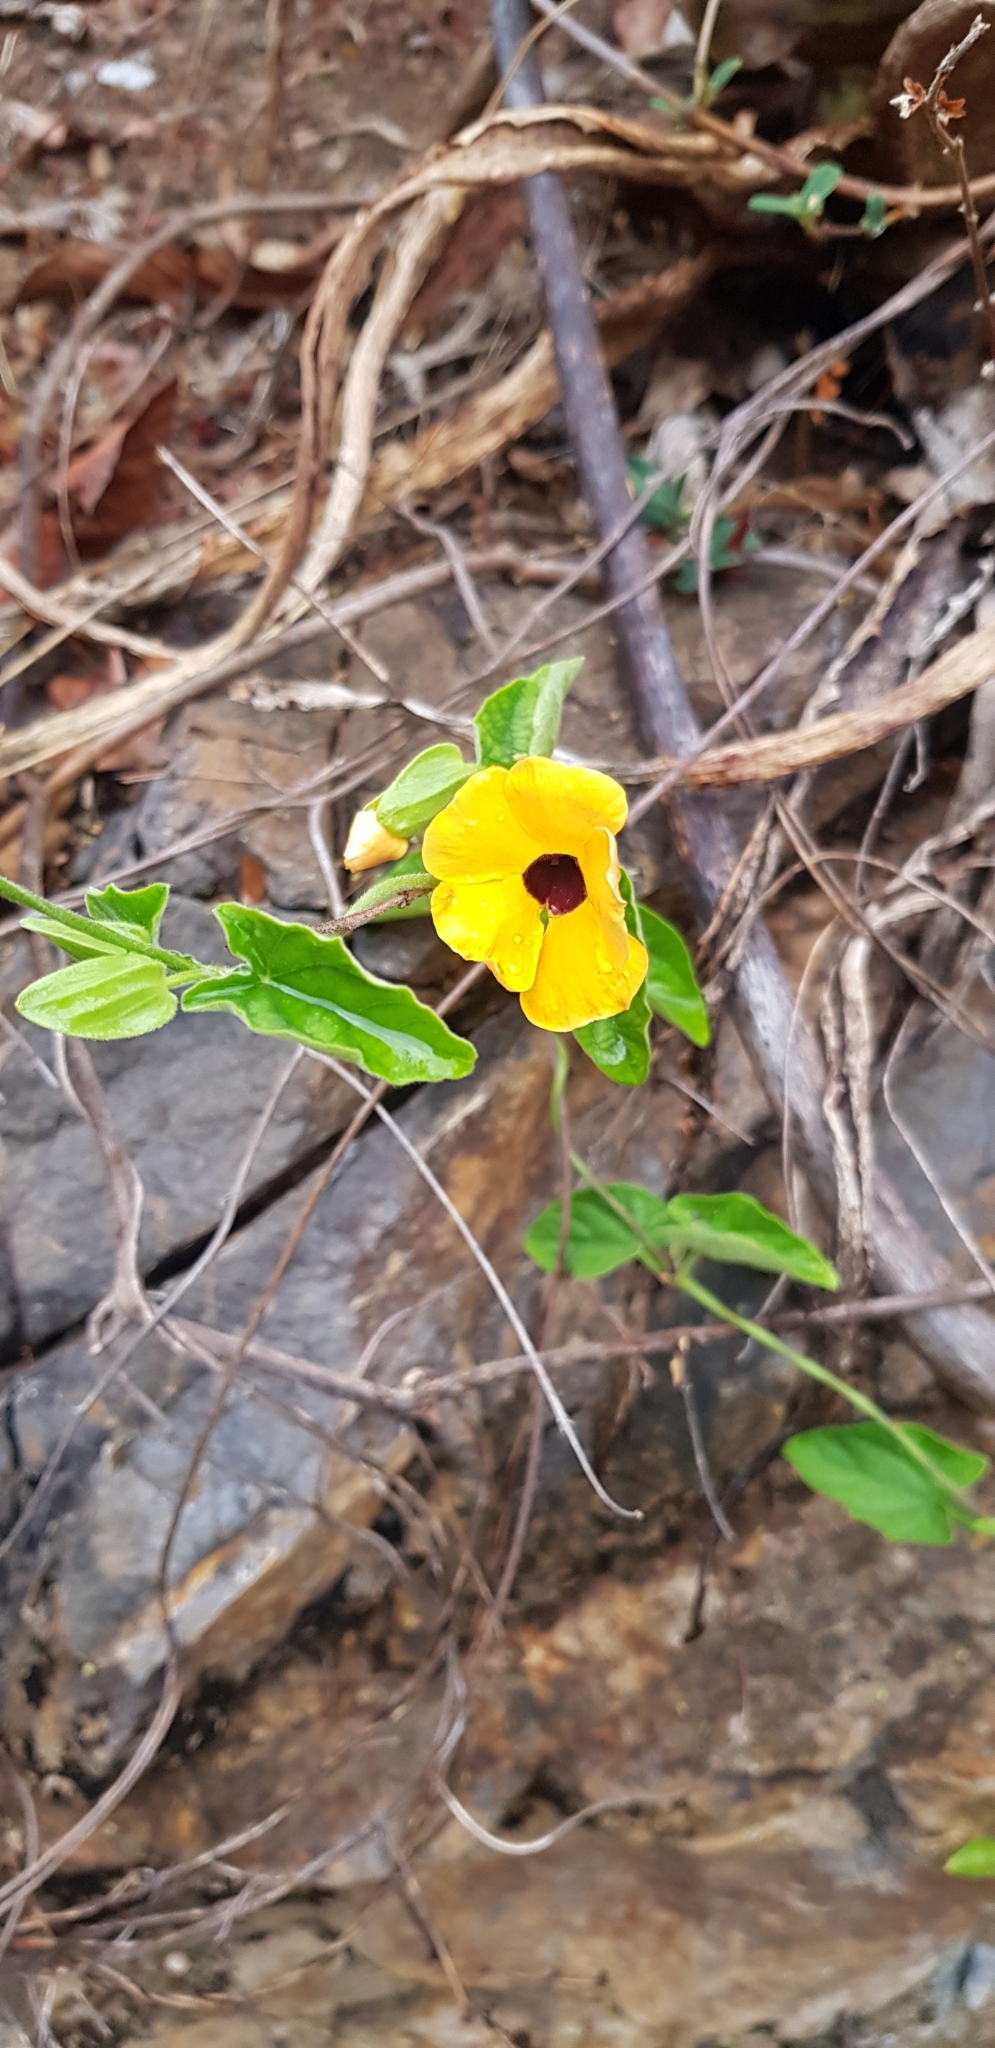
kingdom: Plantae
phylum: Tracheophyta
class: Magnoliopsida
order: Lamiales
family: Acanthaceae
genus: Thunbergia
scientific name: Thunbergia alata
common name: Blackeyed susan vine
